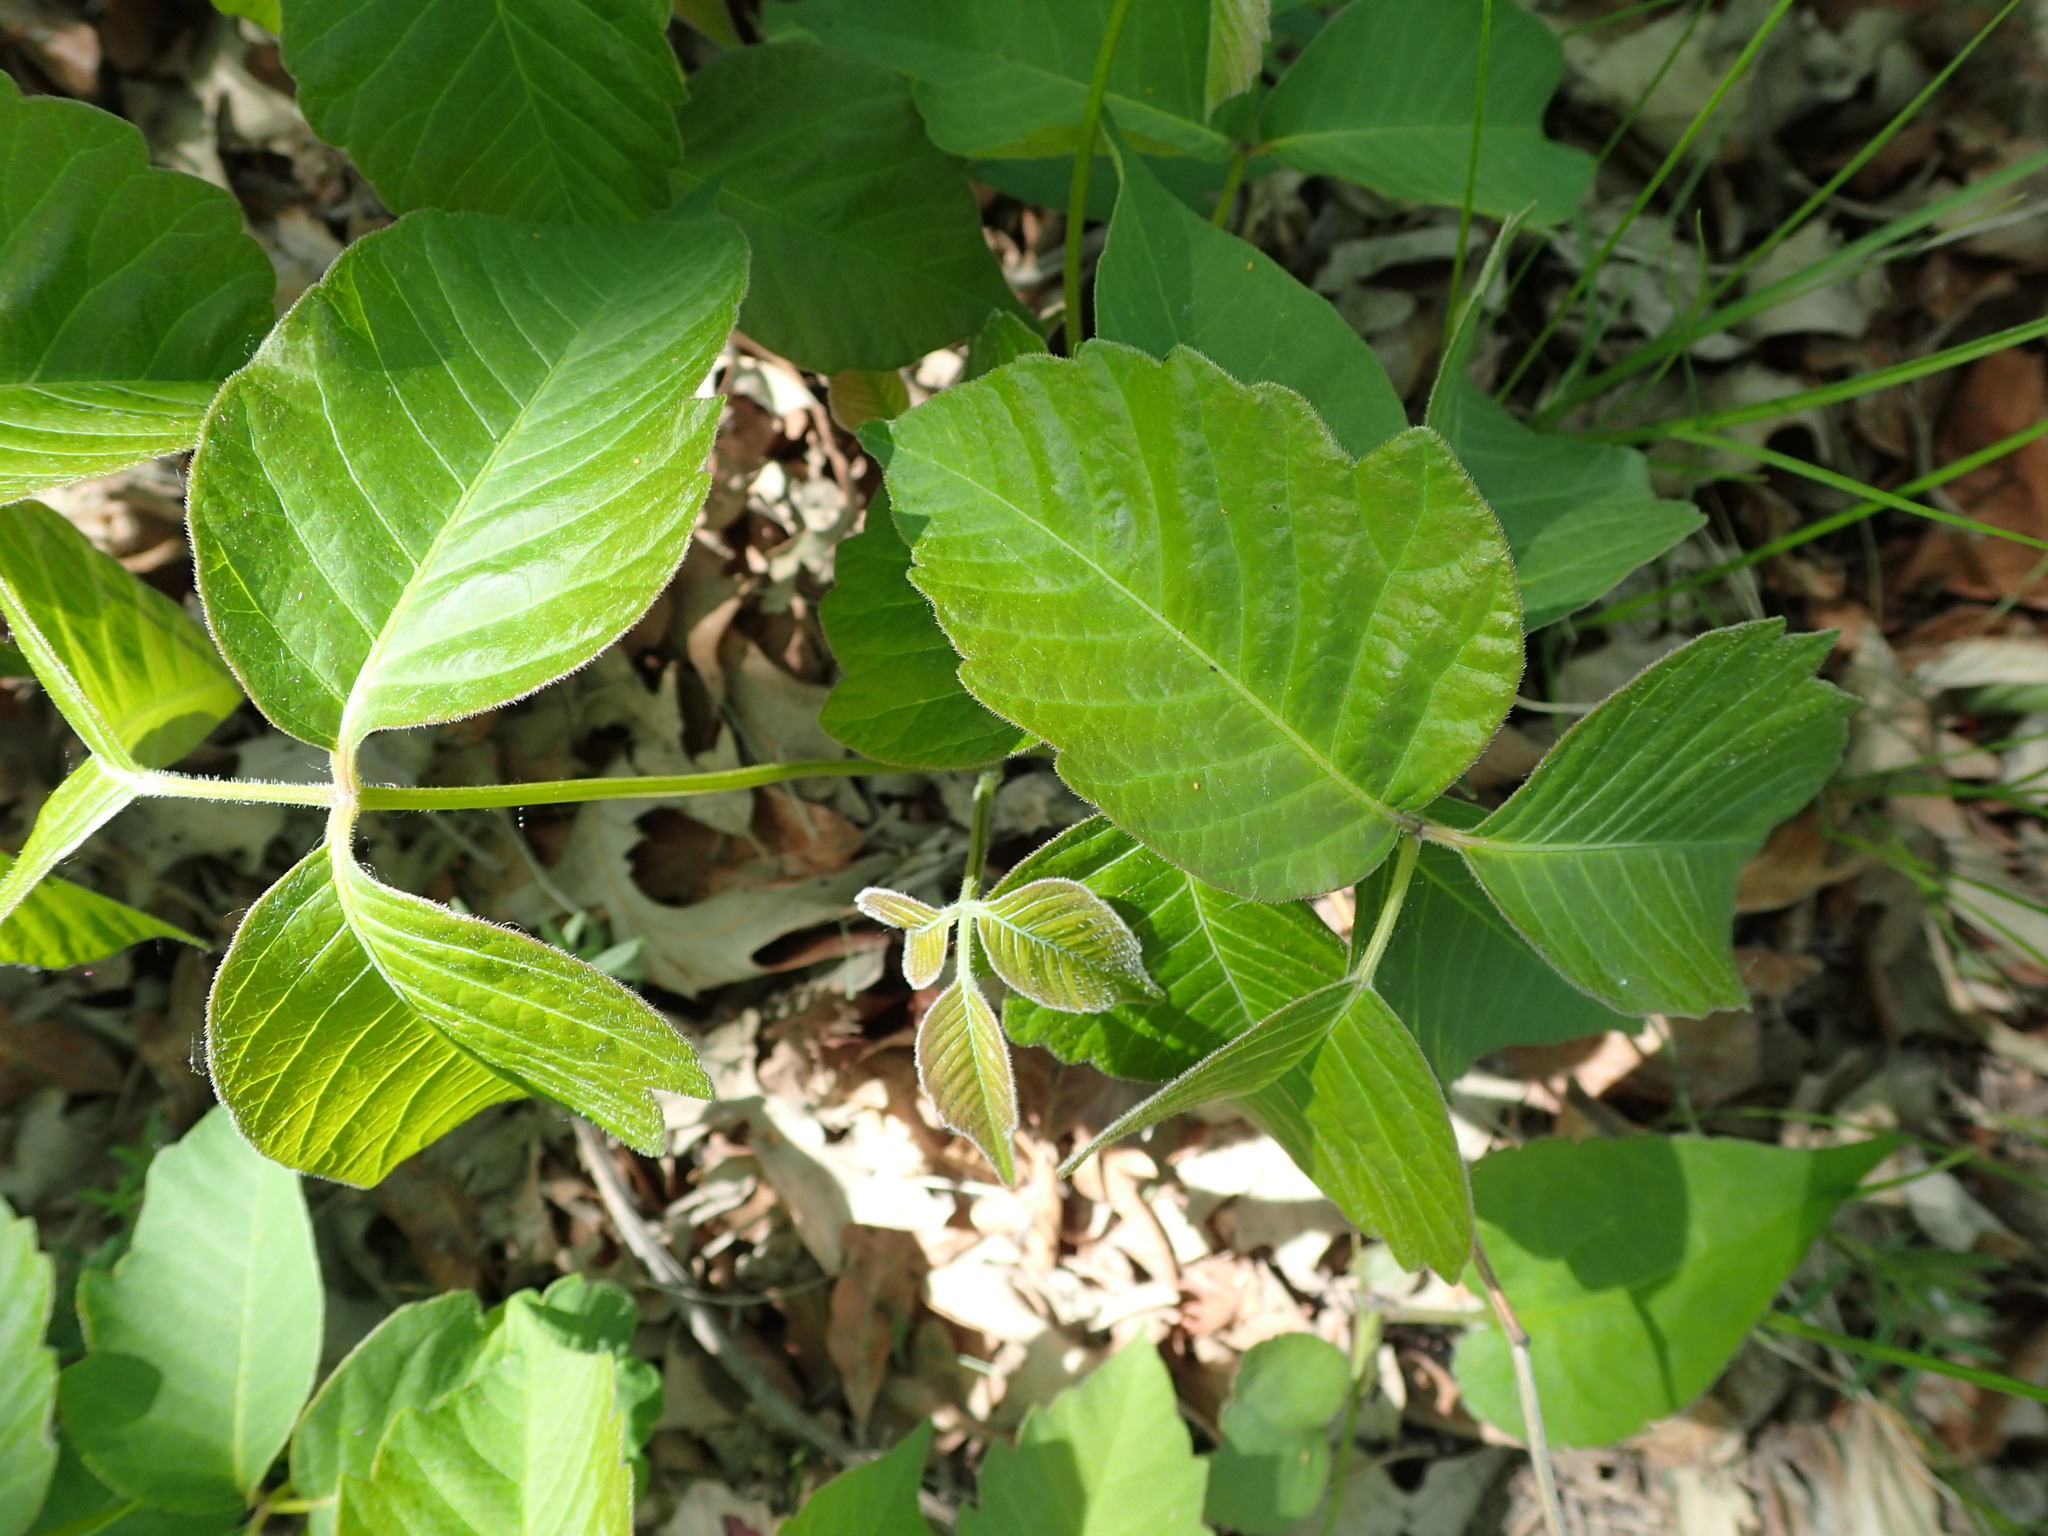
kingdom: Plantae
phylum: Tracheophyta
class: Magnoliopsida
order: Sapindales
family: Anacardiaceae
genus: Toxicodendron
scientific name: Toxicodendron rydbergii
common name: Rydberg's poison-ivy
